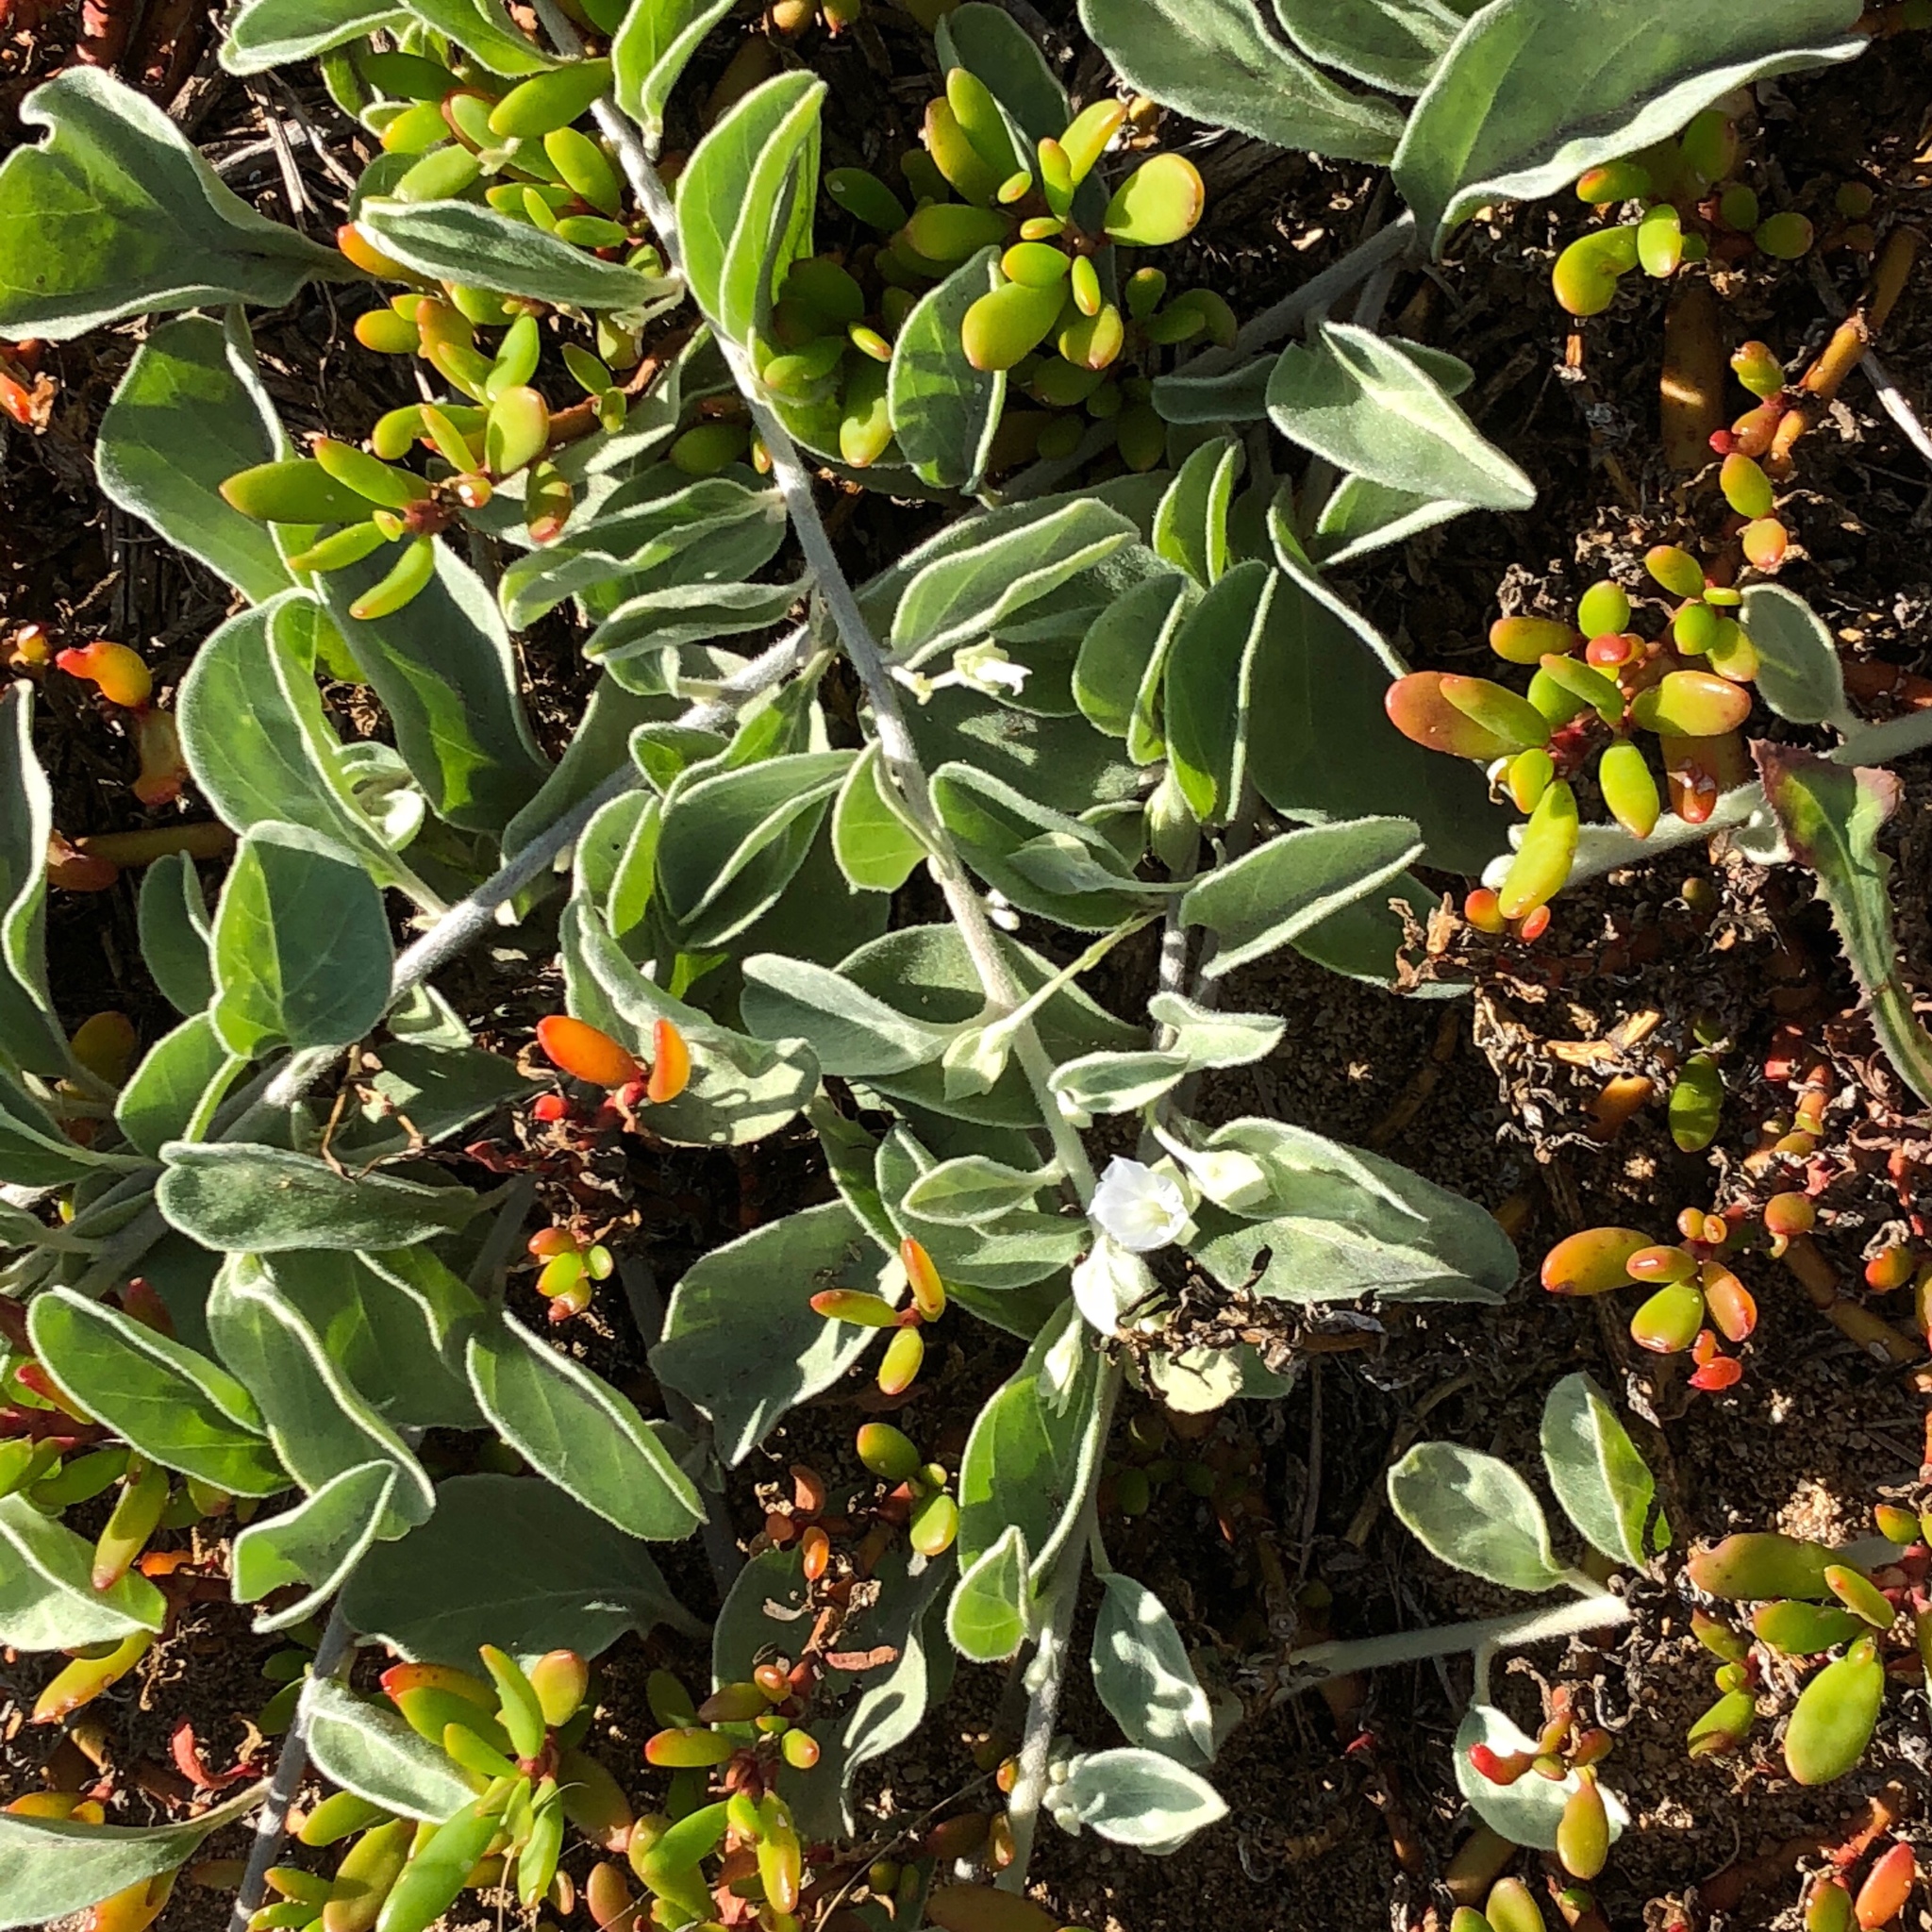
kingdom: Plantae
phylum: Tracheophyta
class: Magnoliopsida
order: Solanales
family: Convolvulaceae
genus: Jacquemontia
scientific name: Jacquemontia sandwicensis
